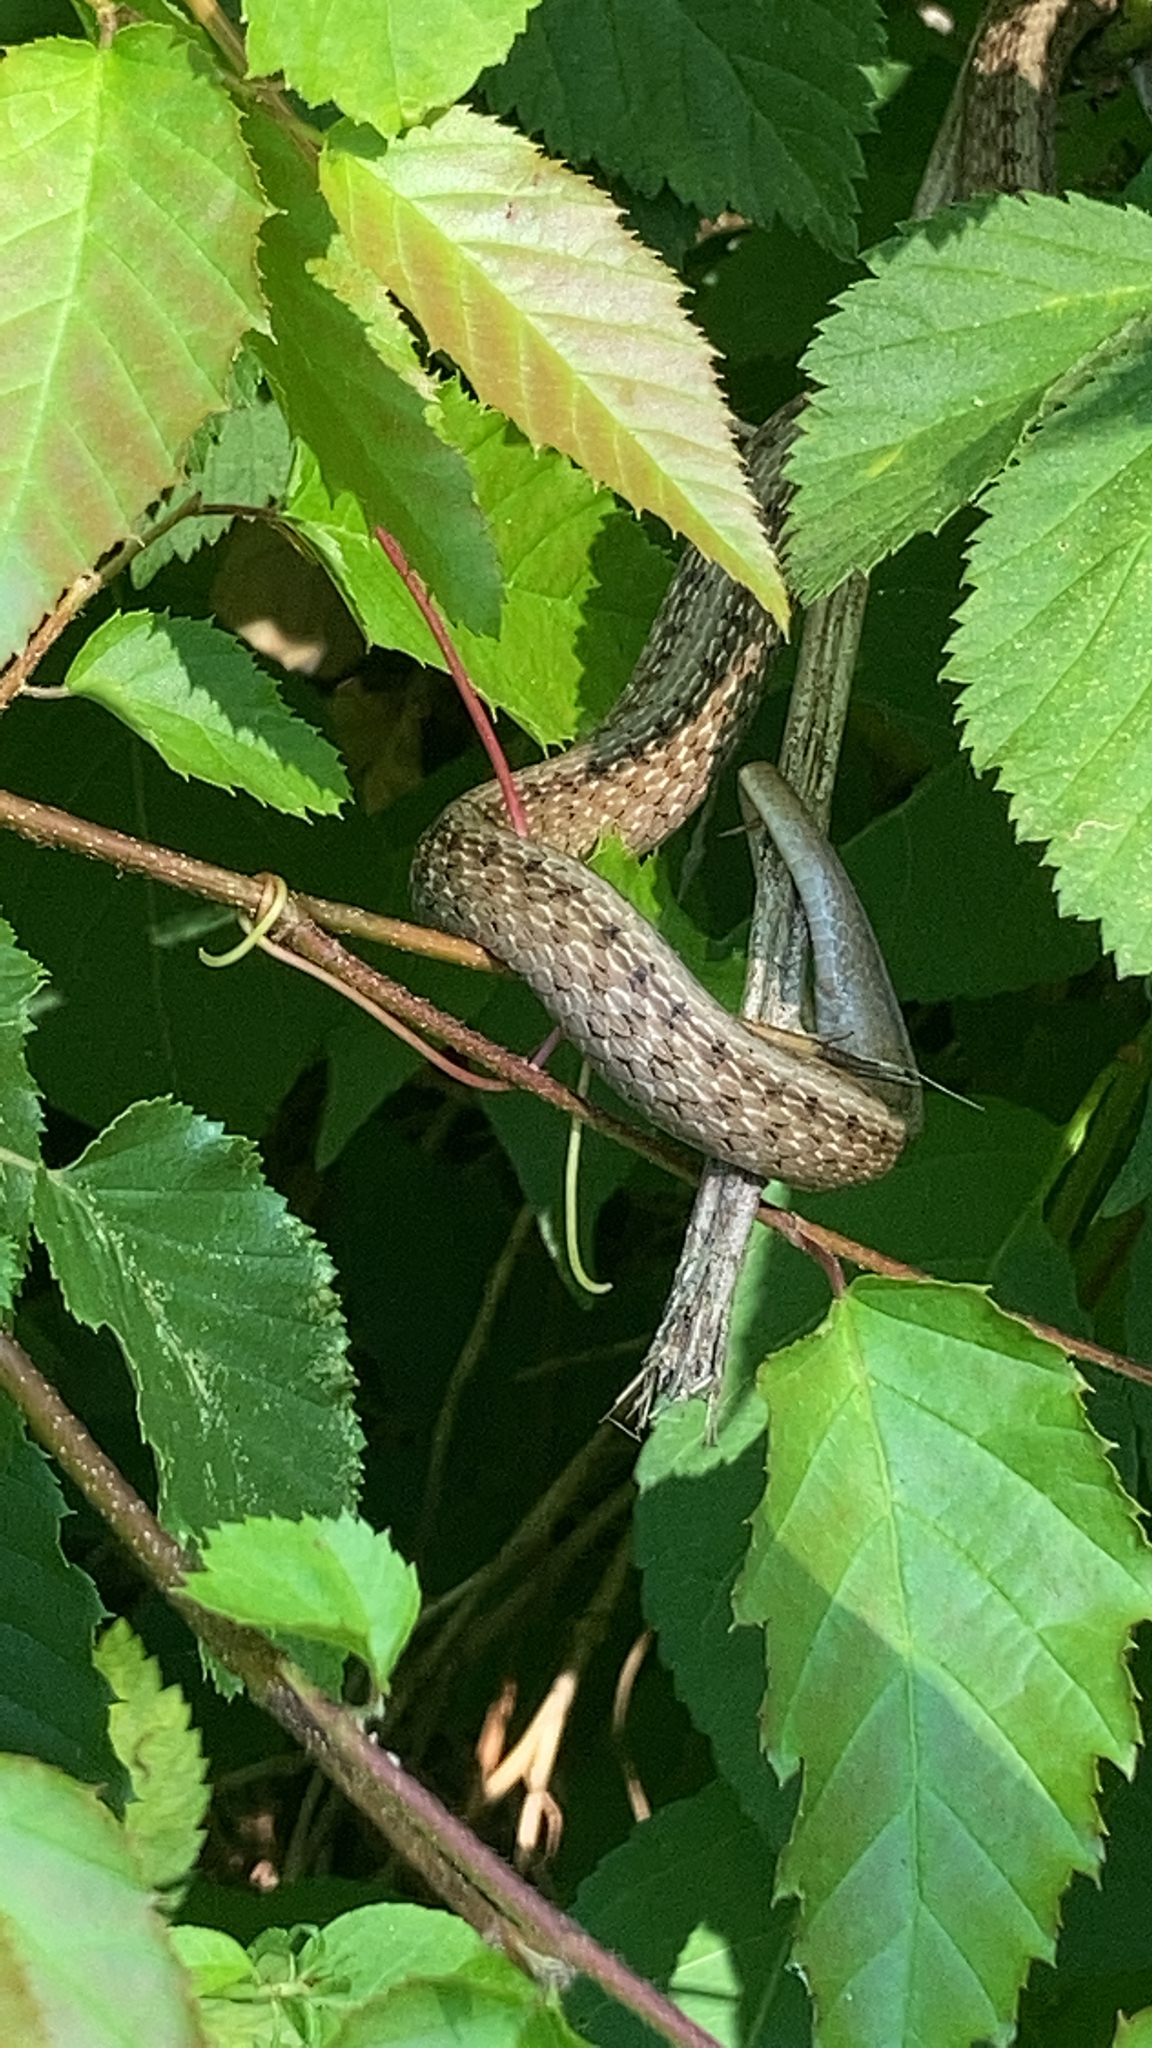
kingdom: Animalia
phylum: Chordata
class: Squamata
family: Colubridae
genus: Storeria
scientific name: Storeria dekayi
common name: (dekay’s) brown snake
